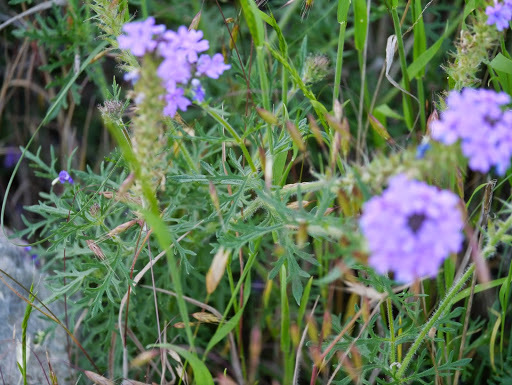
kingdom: Plantae
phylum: Tracheophyta
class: Magnoliopsida
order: Lamiales
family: Verbenaceae
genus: Verbena
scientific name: Verbena bipinnatifida
